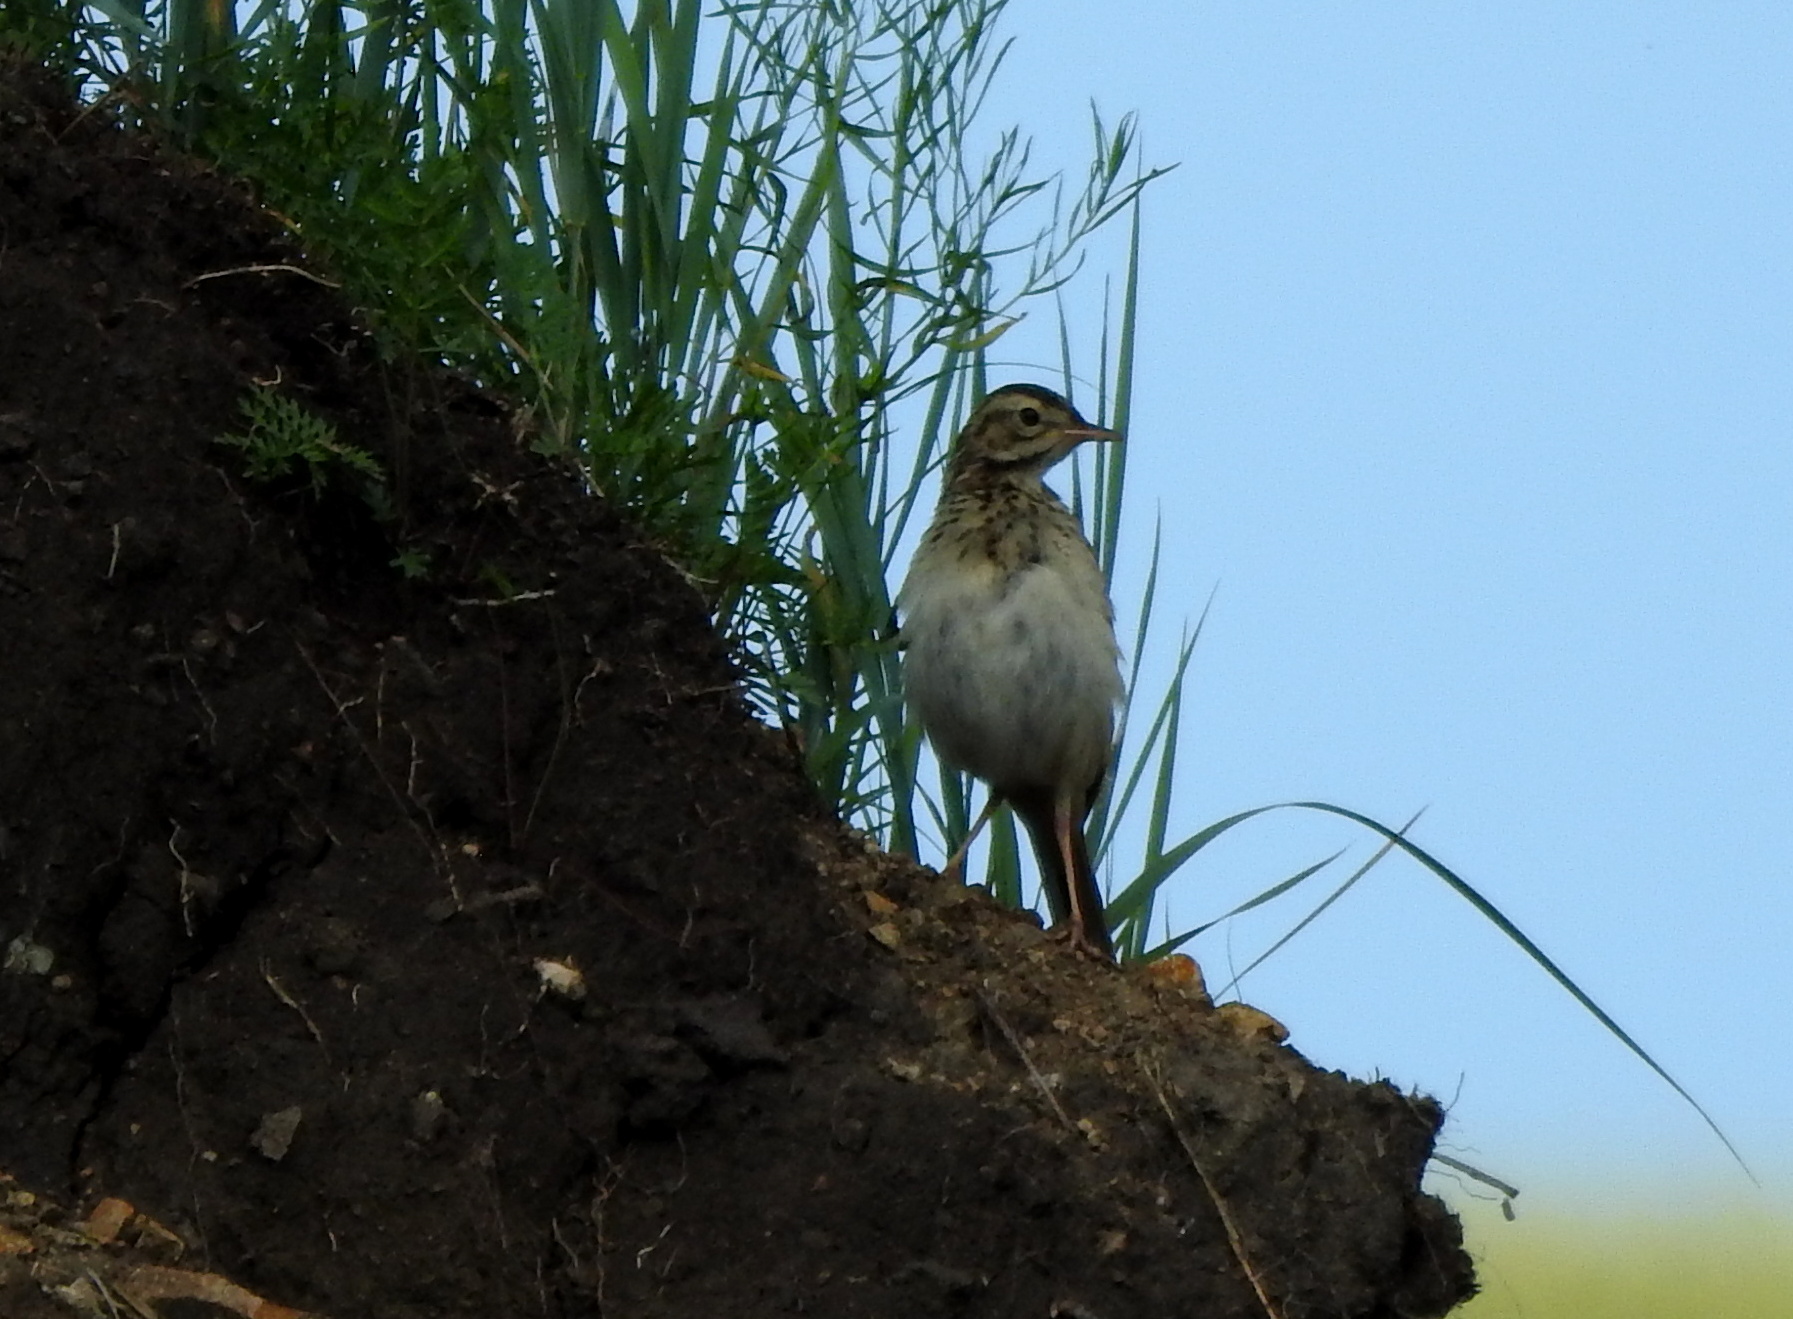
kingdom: Animalia
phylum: Chordata
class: Aves
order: Passeriformes
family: Motacillidae
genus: Anthus
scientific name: Anthus richardi
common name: Richard's pipit
